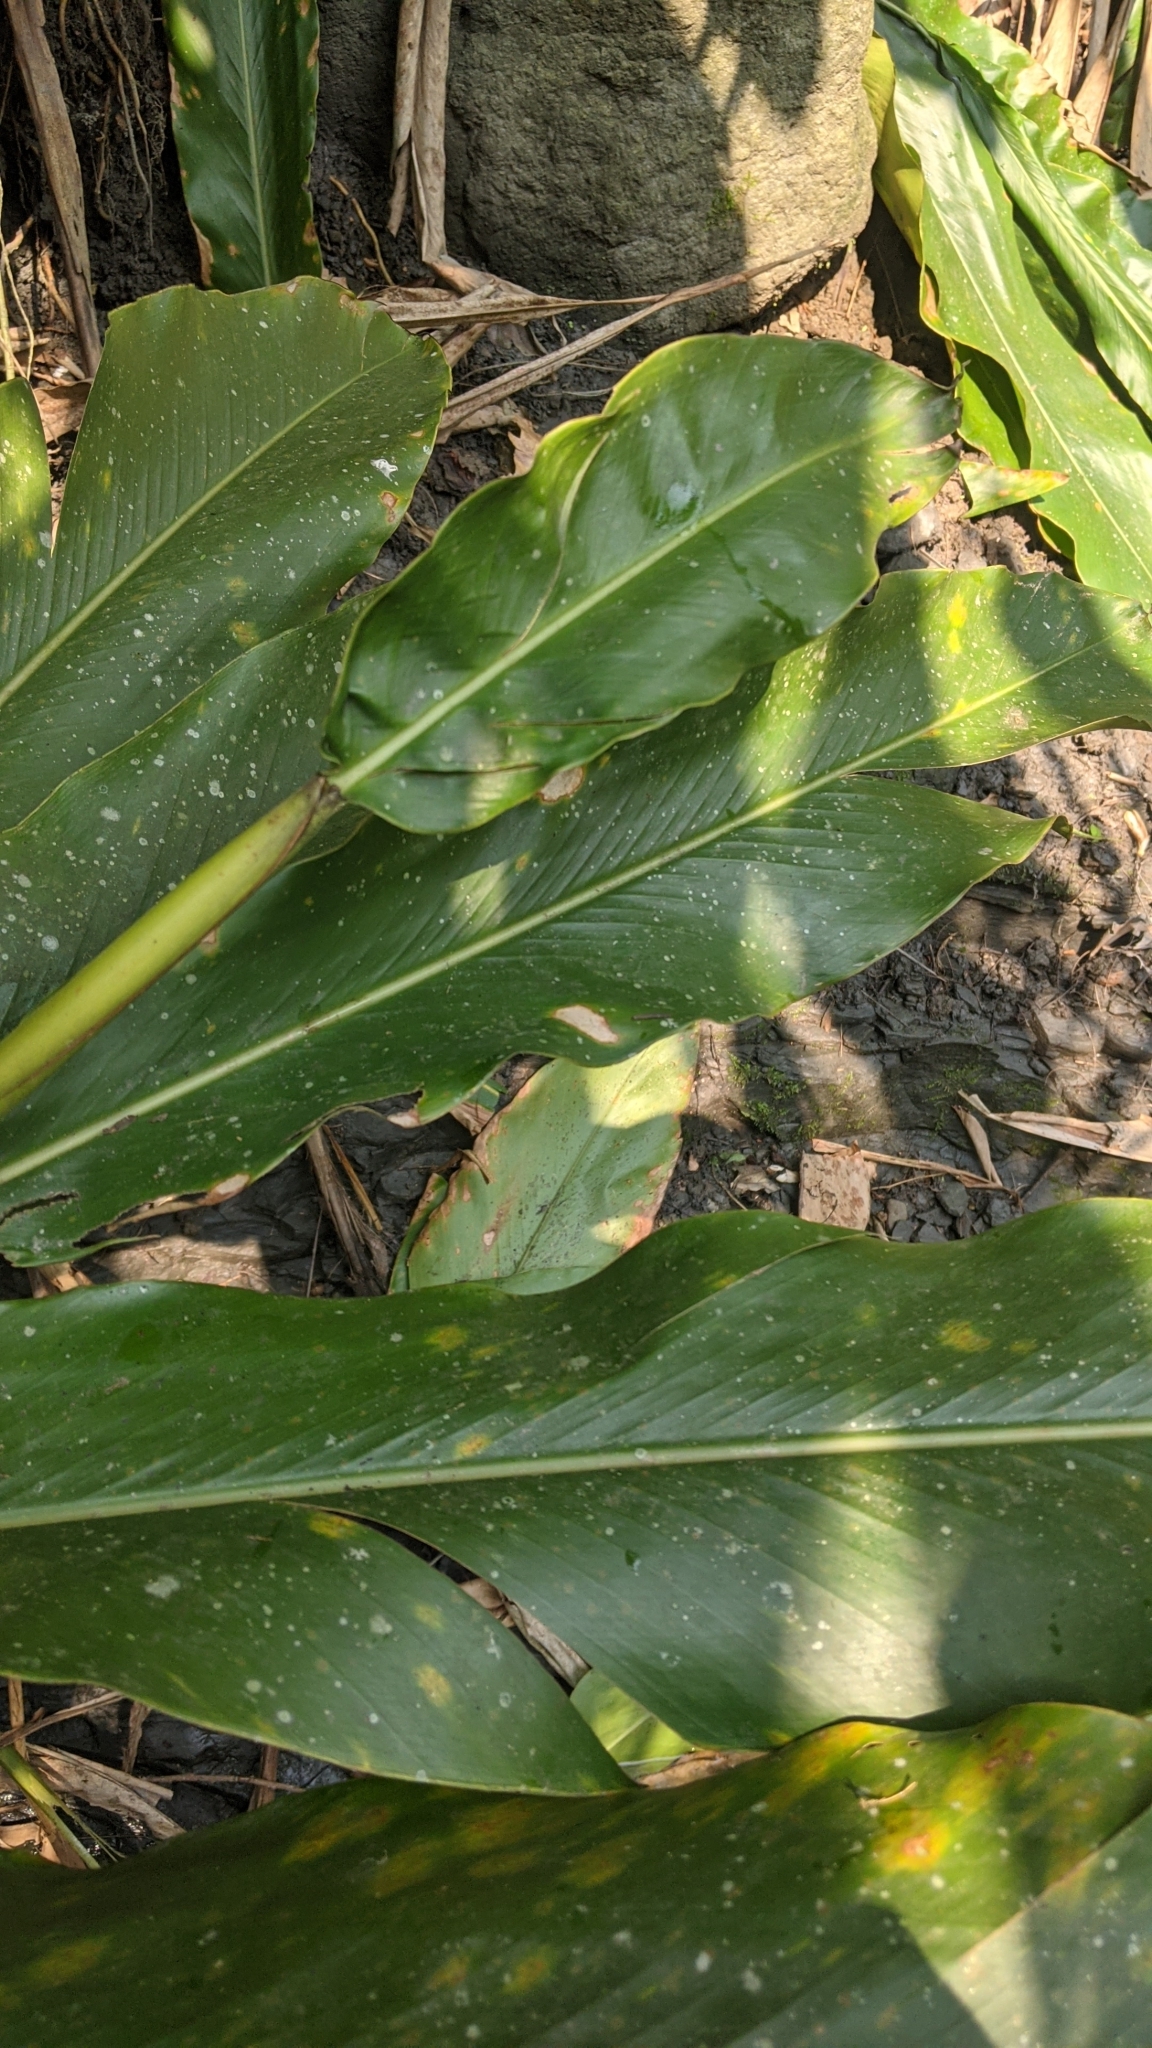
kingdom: Plantae
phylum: Tracheophyta
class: Liliopsida
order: Zingiberales
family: Zingiberaceae
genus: Alpinia
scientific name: Alpinia uraiensis
